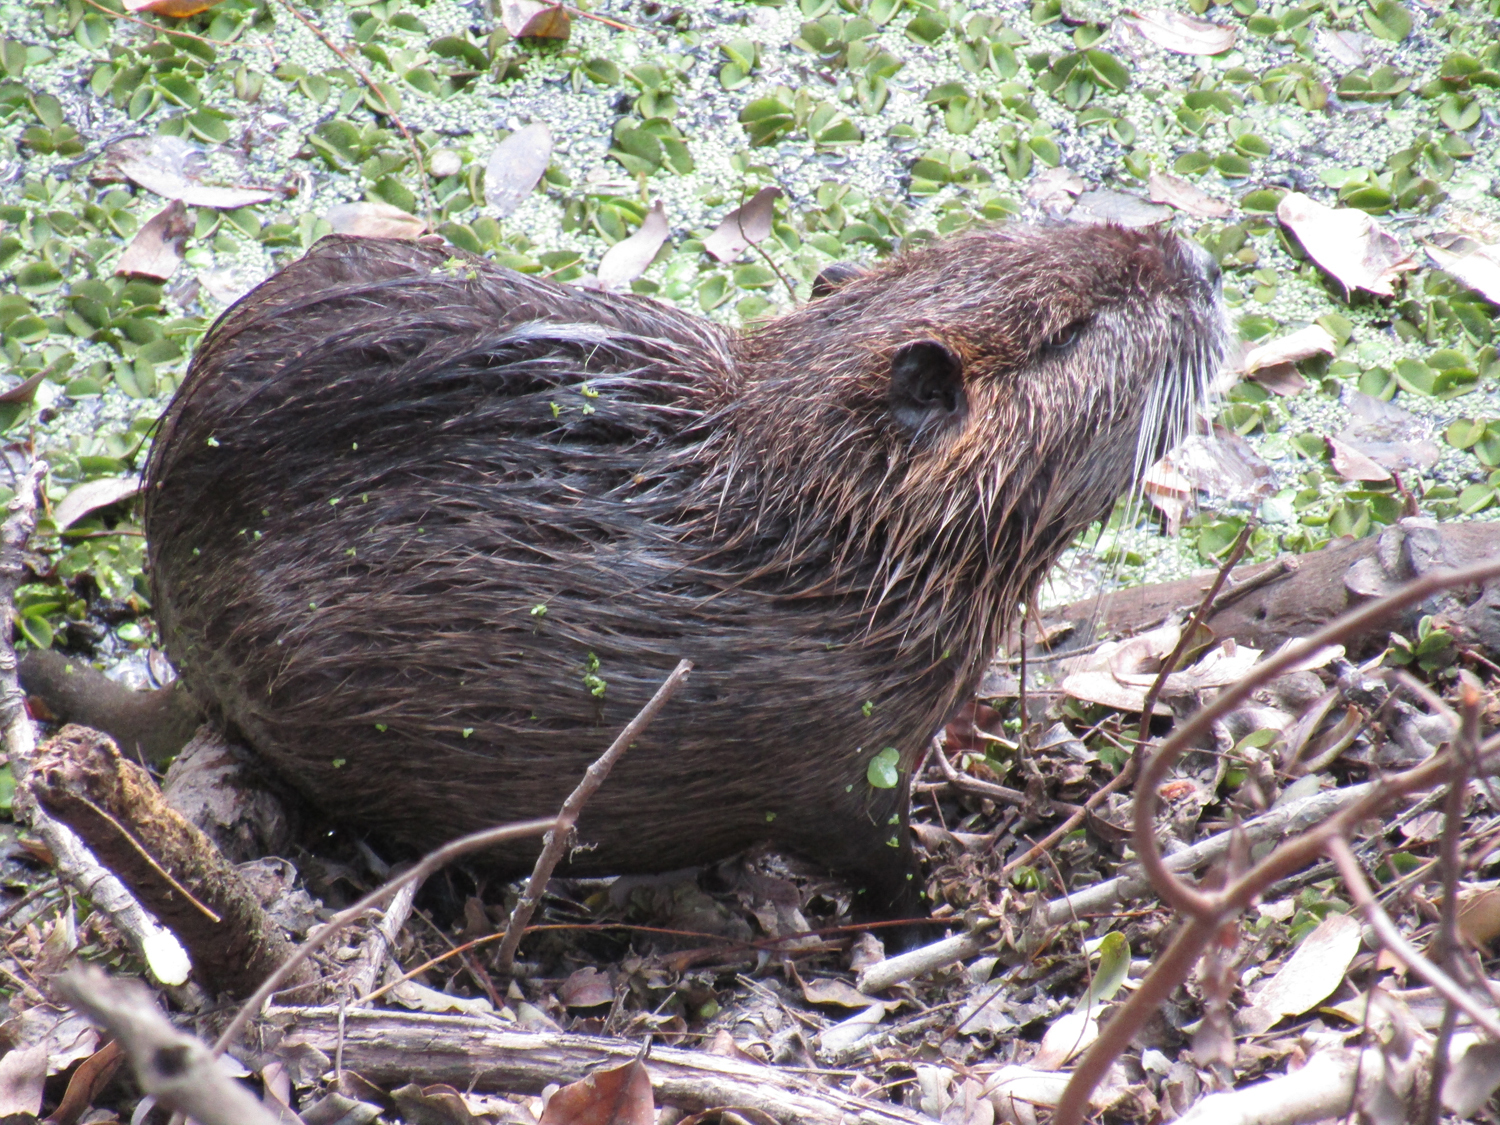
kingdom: Animalia
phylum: Chordata
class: Mammalia
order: Rodentia
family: Myocastoridae
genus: Myocastor
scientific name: Myocastor coypus
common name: Coypu
